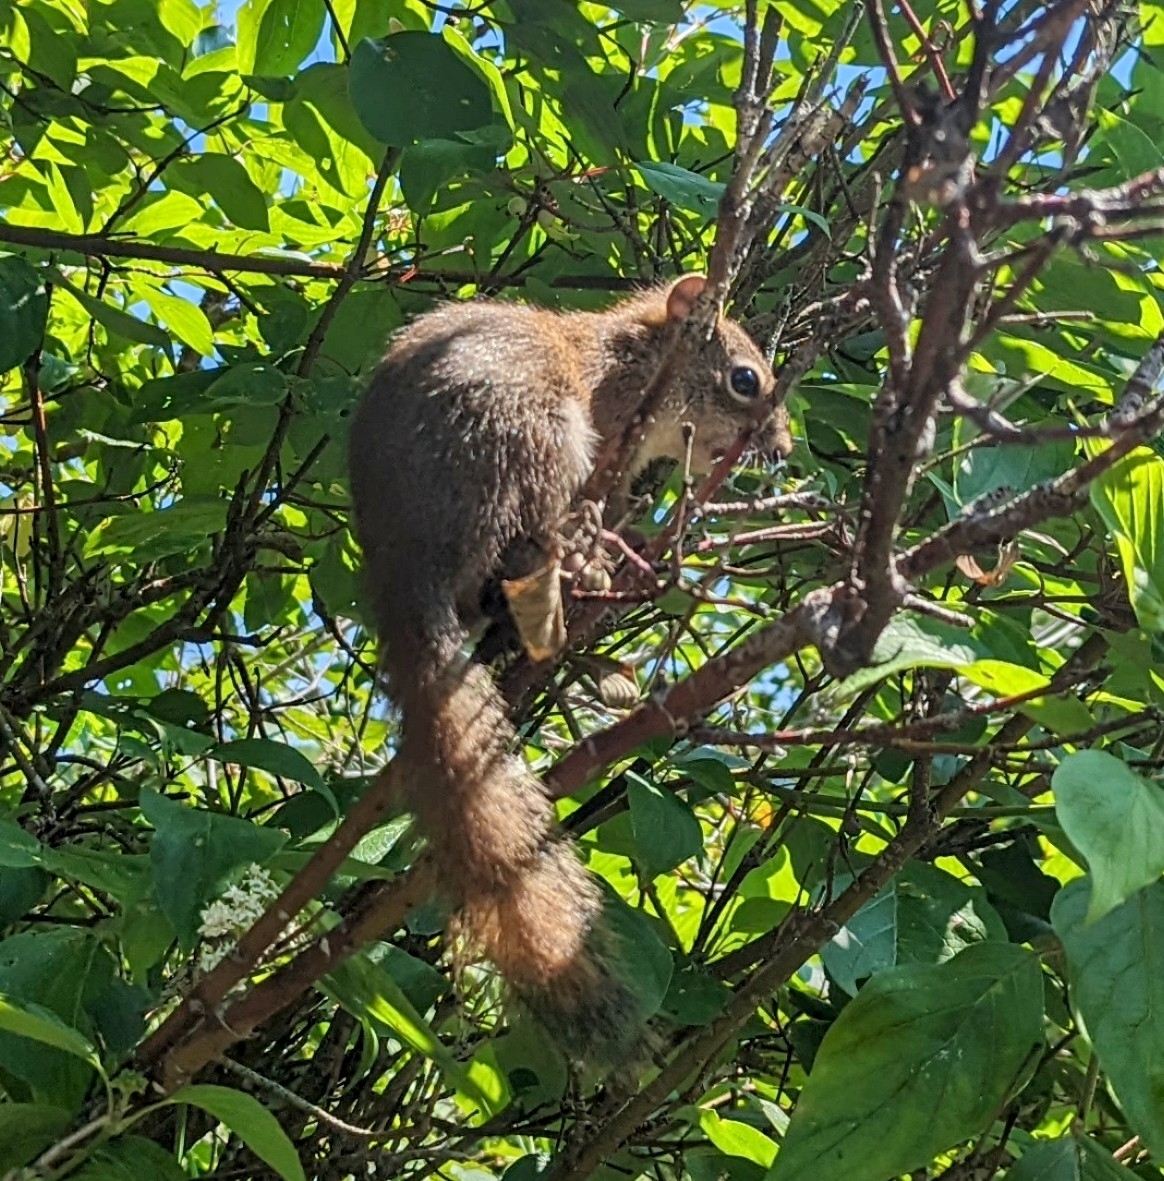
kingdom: Animalia
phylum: Chordata
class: Mammalia
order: Rodentia
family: Sciuridae
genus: Tamiasciurus
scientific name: Tamiasciurus hudsonicus
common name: Red squirrel
